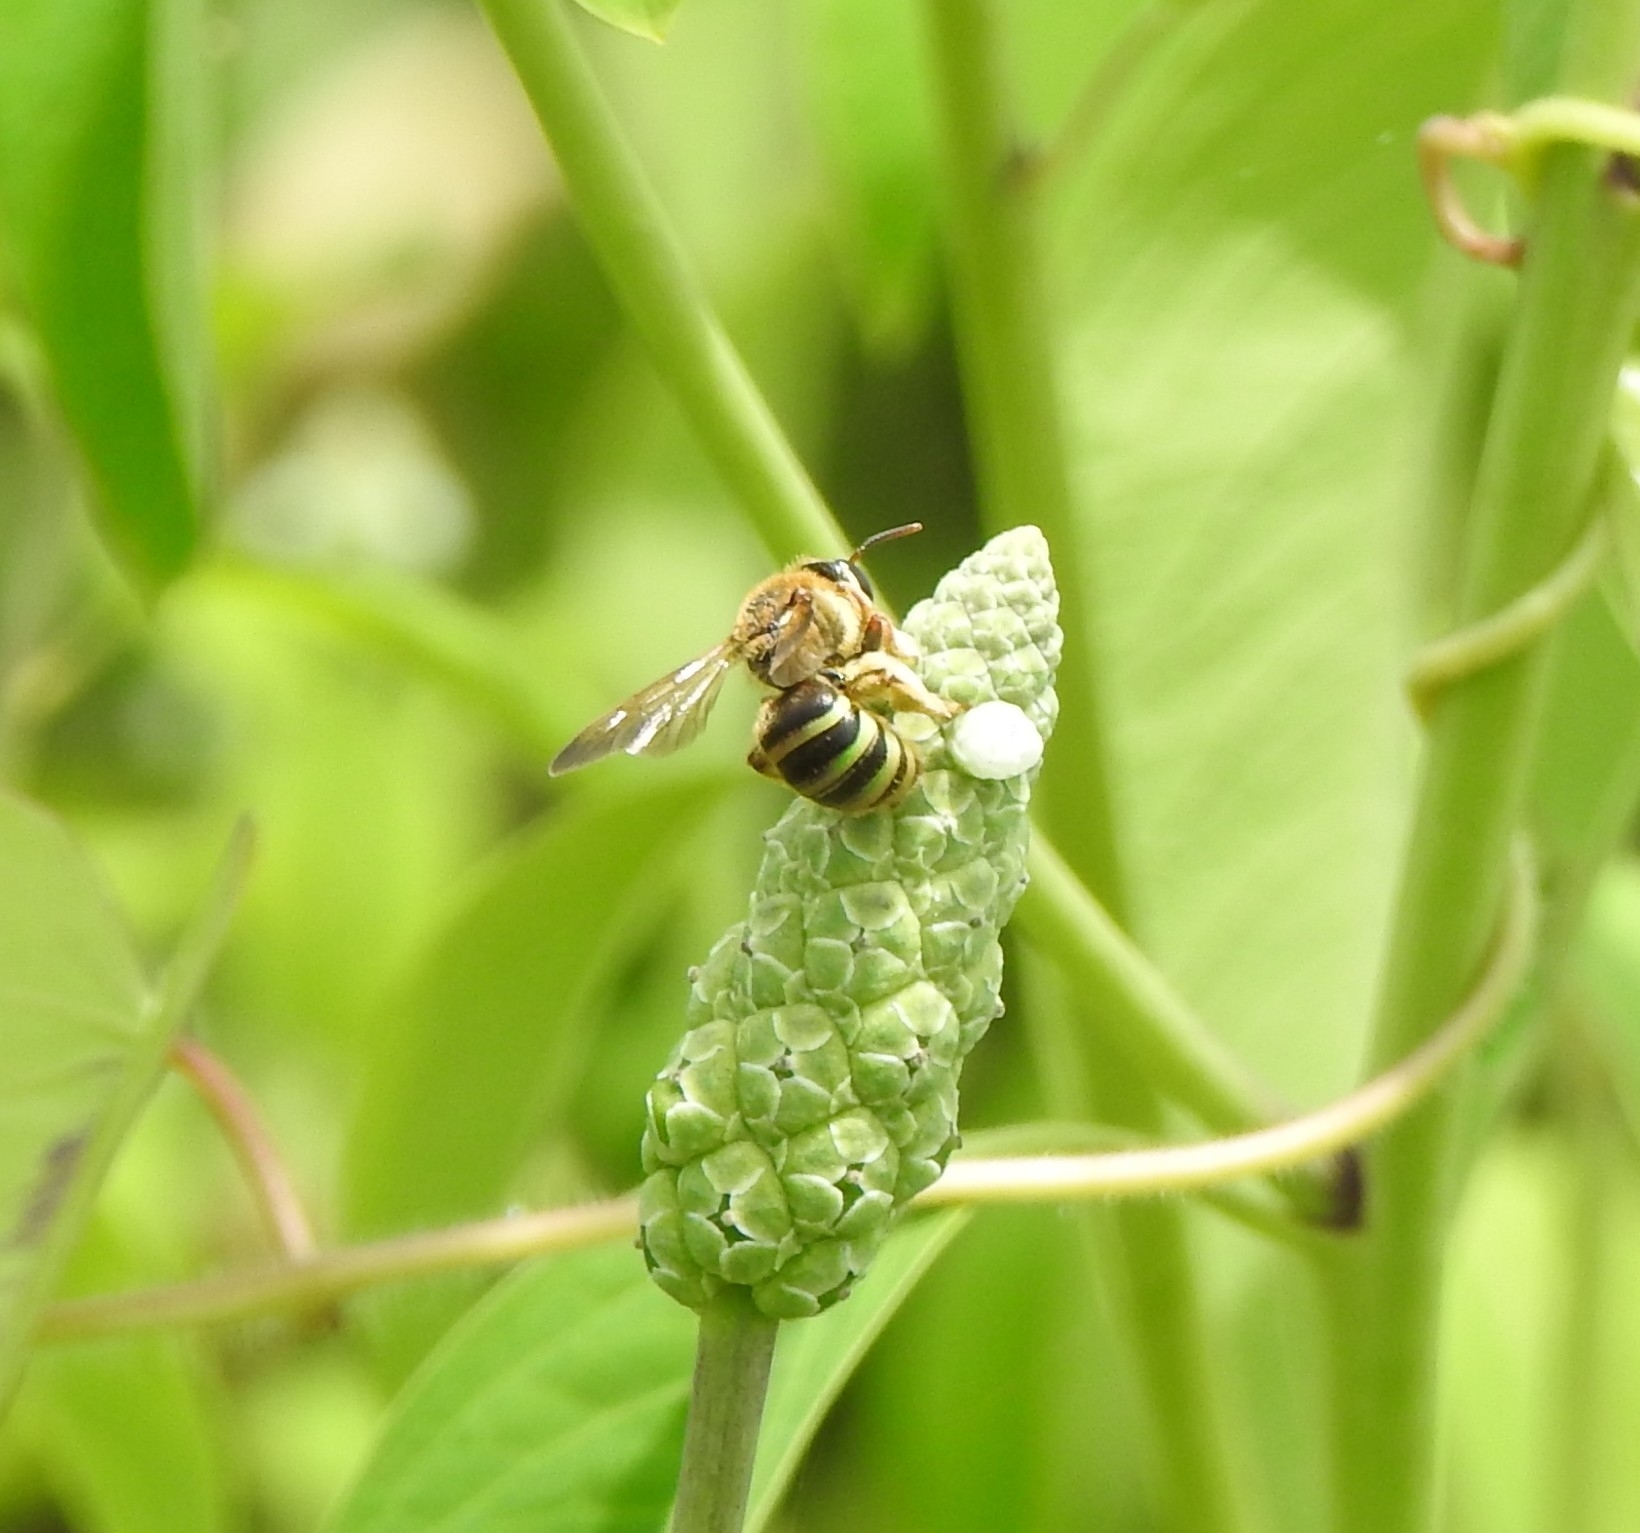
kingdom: Animalia
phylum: Arthropoda
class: Insecta
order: Hymenoptera
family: Halictidae
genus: Nomia
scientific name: Nomia crassipes
